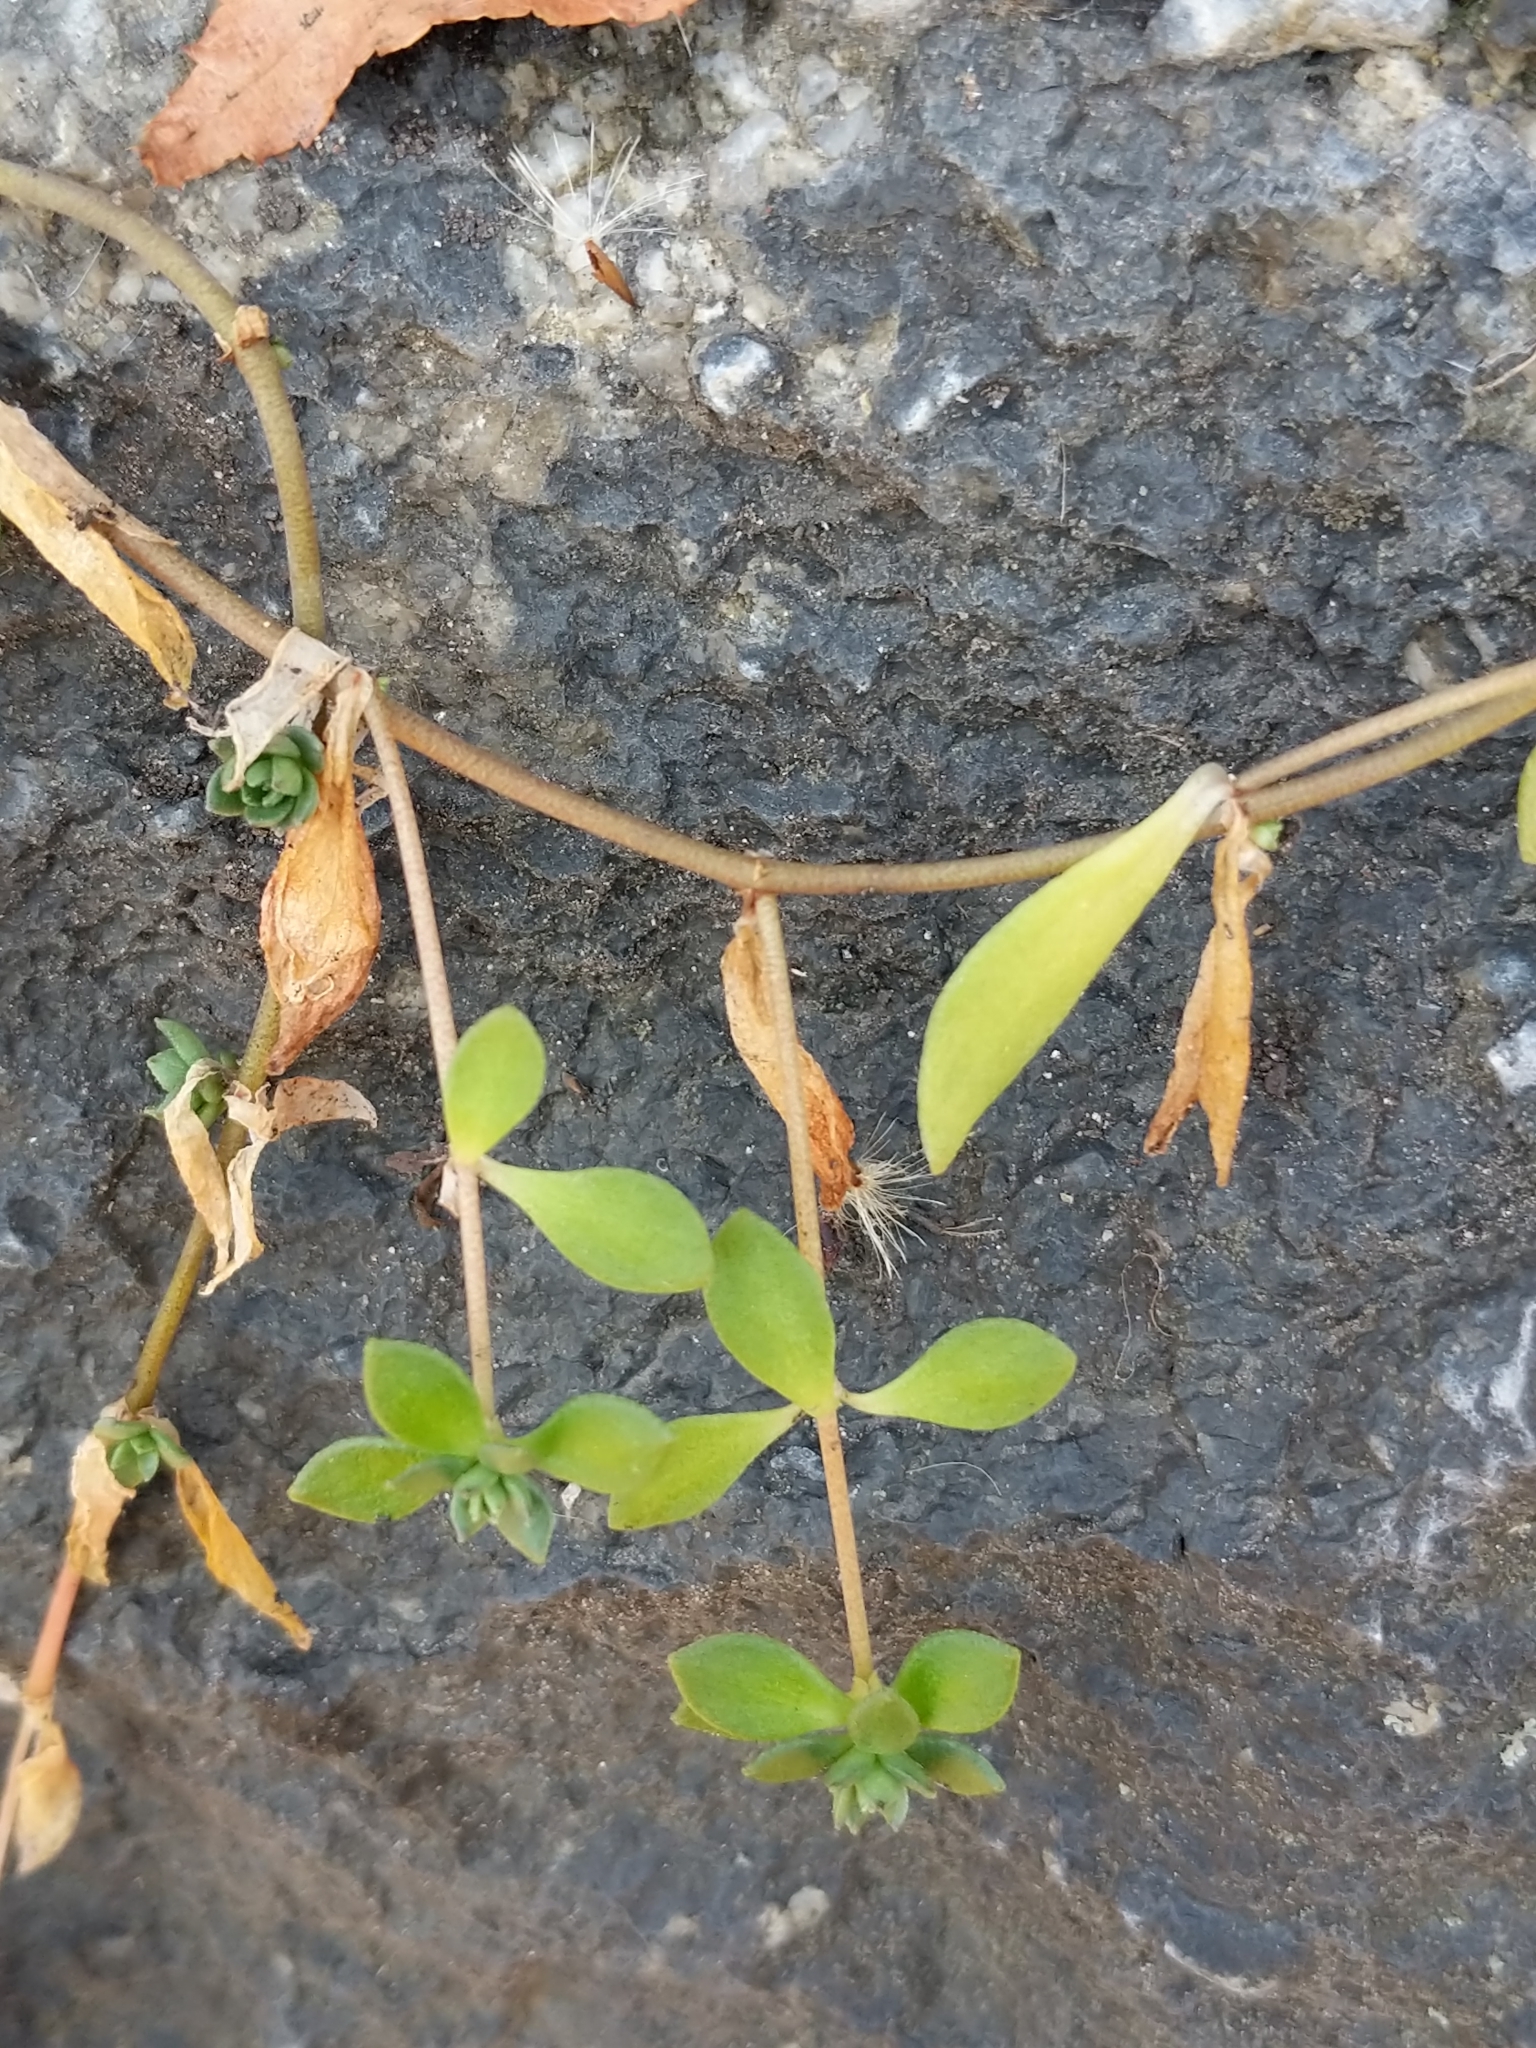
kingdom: Plantae
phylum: Tracheophyta
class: Magnoliopsida
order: Saxifragales
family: Crassulaceae
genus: Sedum
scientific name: Sedum sarmentosum
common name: Stringy stonecrop
